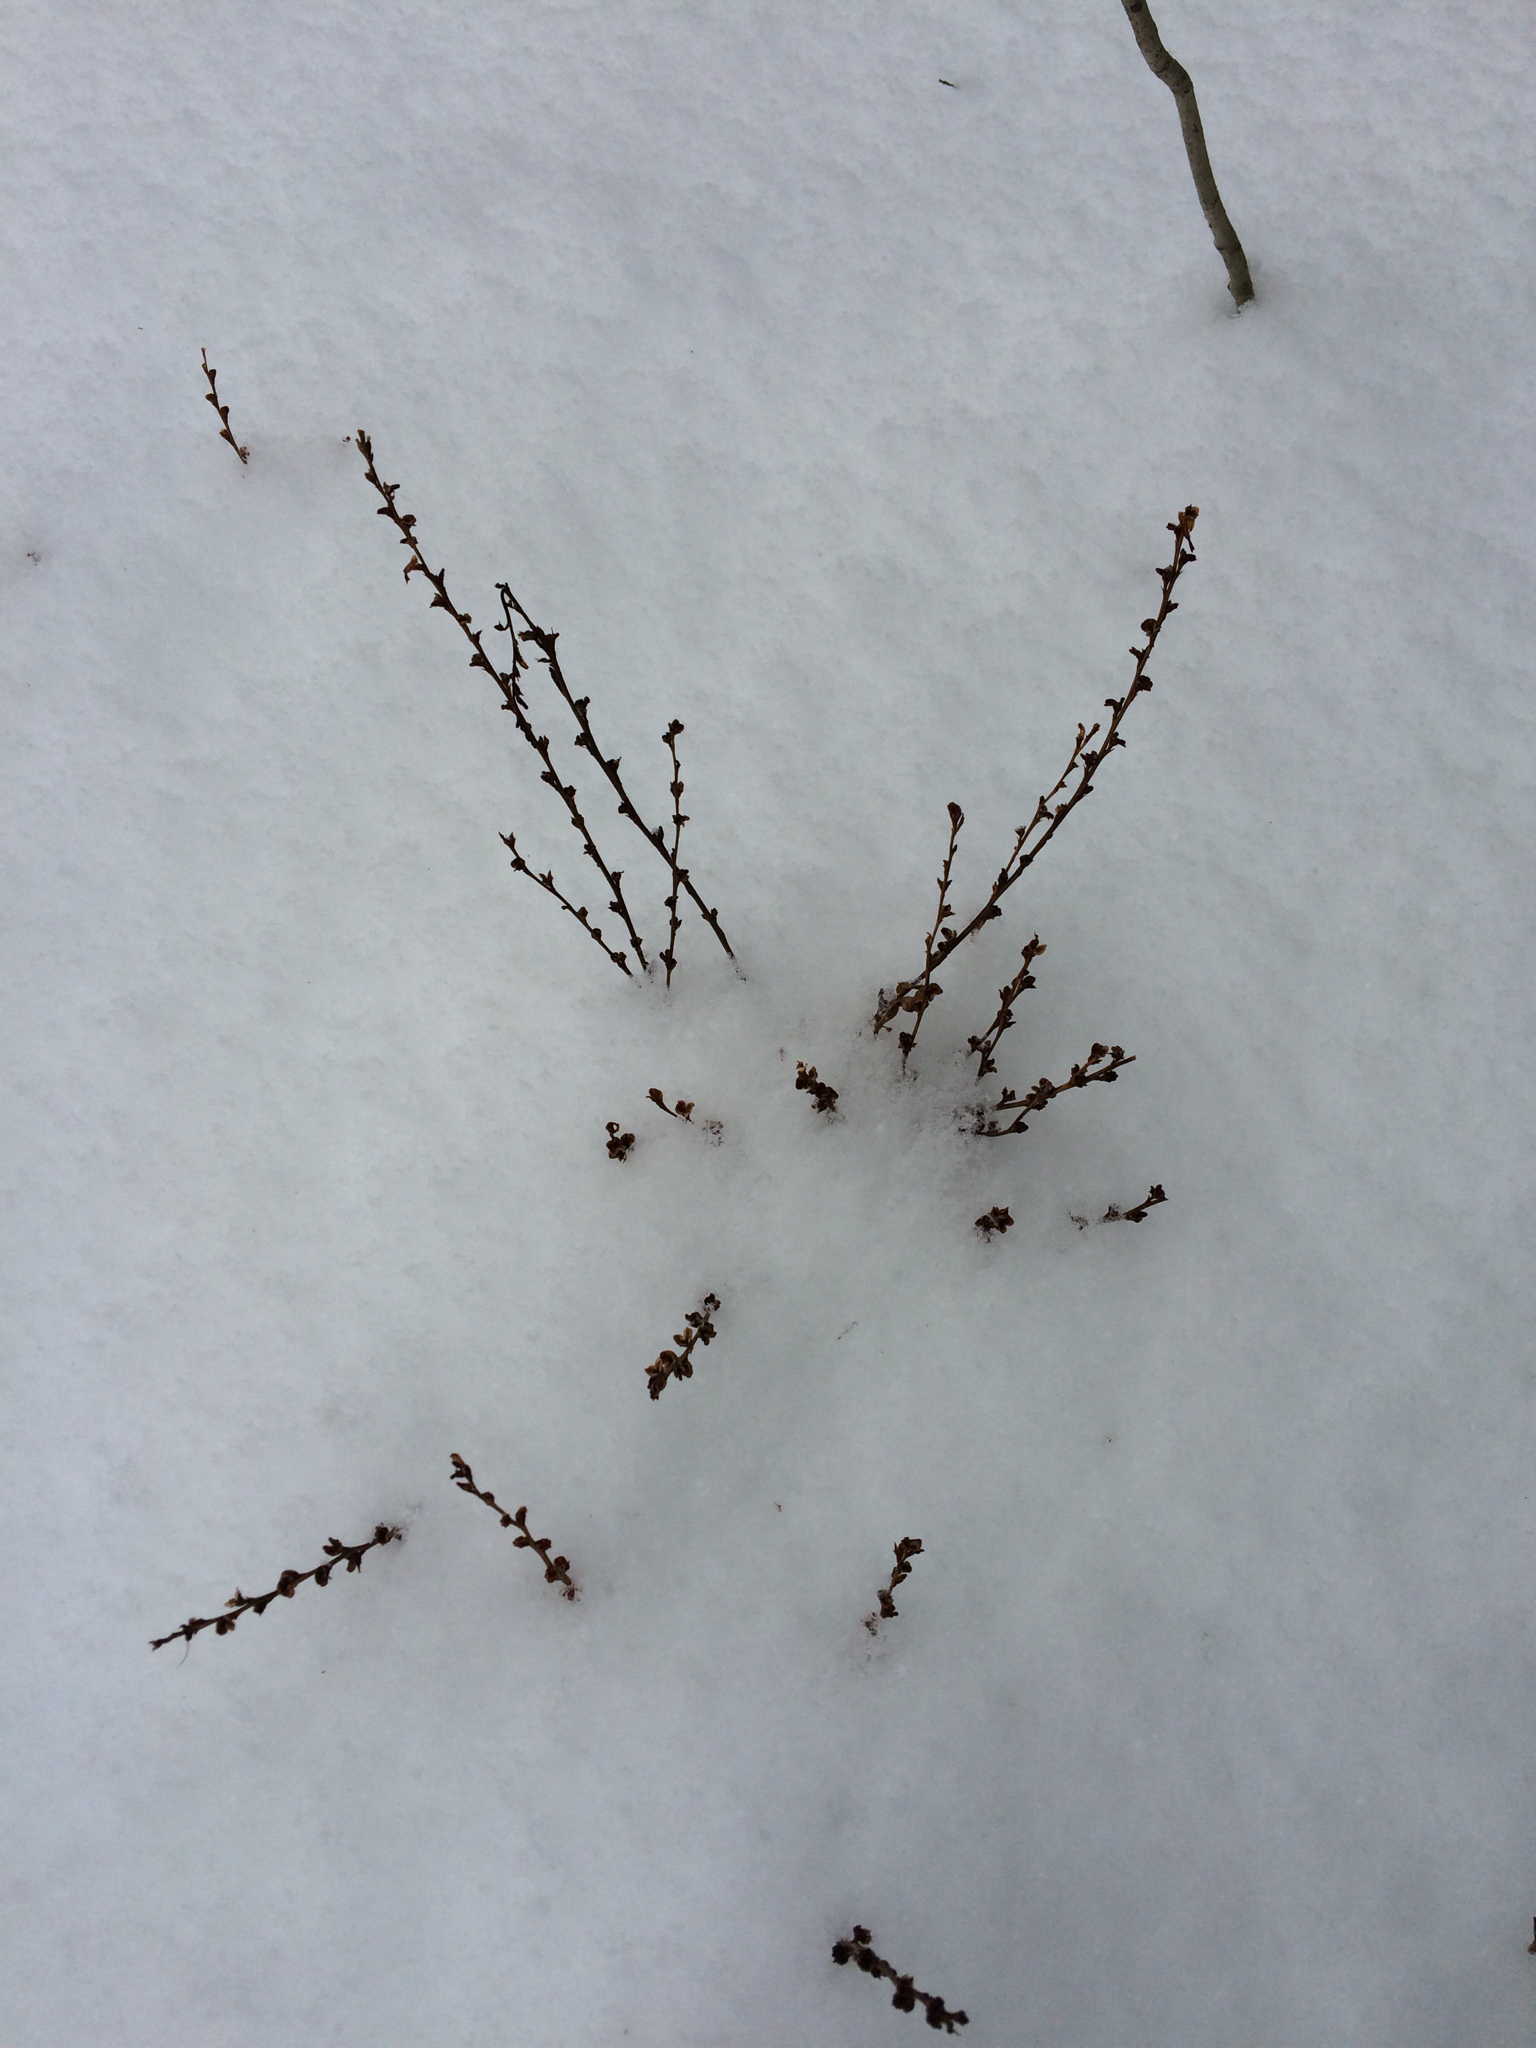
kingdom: Plantae
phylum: Tracheophyta
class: Magnoliopsida
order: Lamiales
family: Orobanchaceae
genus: Epifagus
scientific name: Epifagus virginiana
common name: Beechdrops
